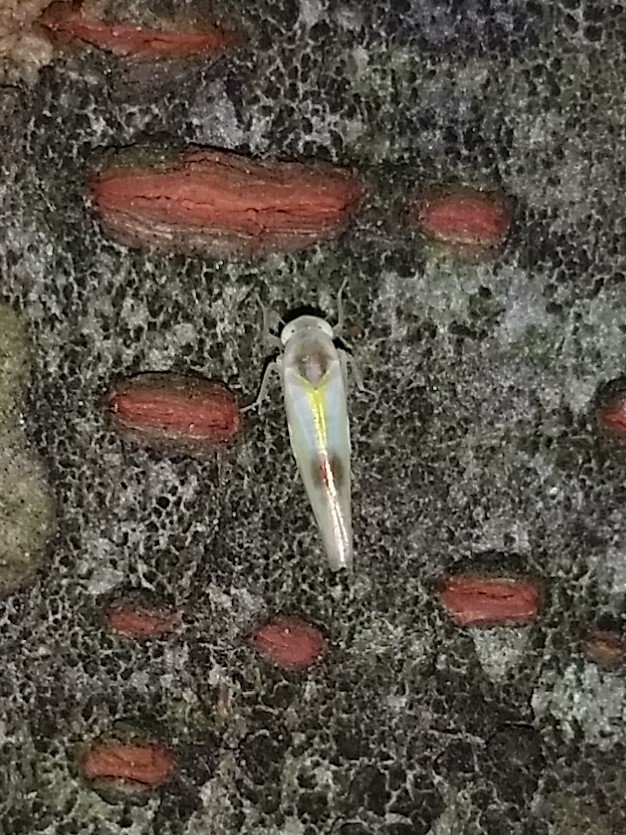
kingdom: Animalia
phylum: Arthropoda
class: Insecta
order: Hemiptera
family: Cicadellidae
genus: Alebra
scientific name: Alebra wahlbergi
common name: Leafhopper
